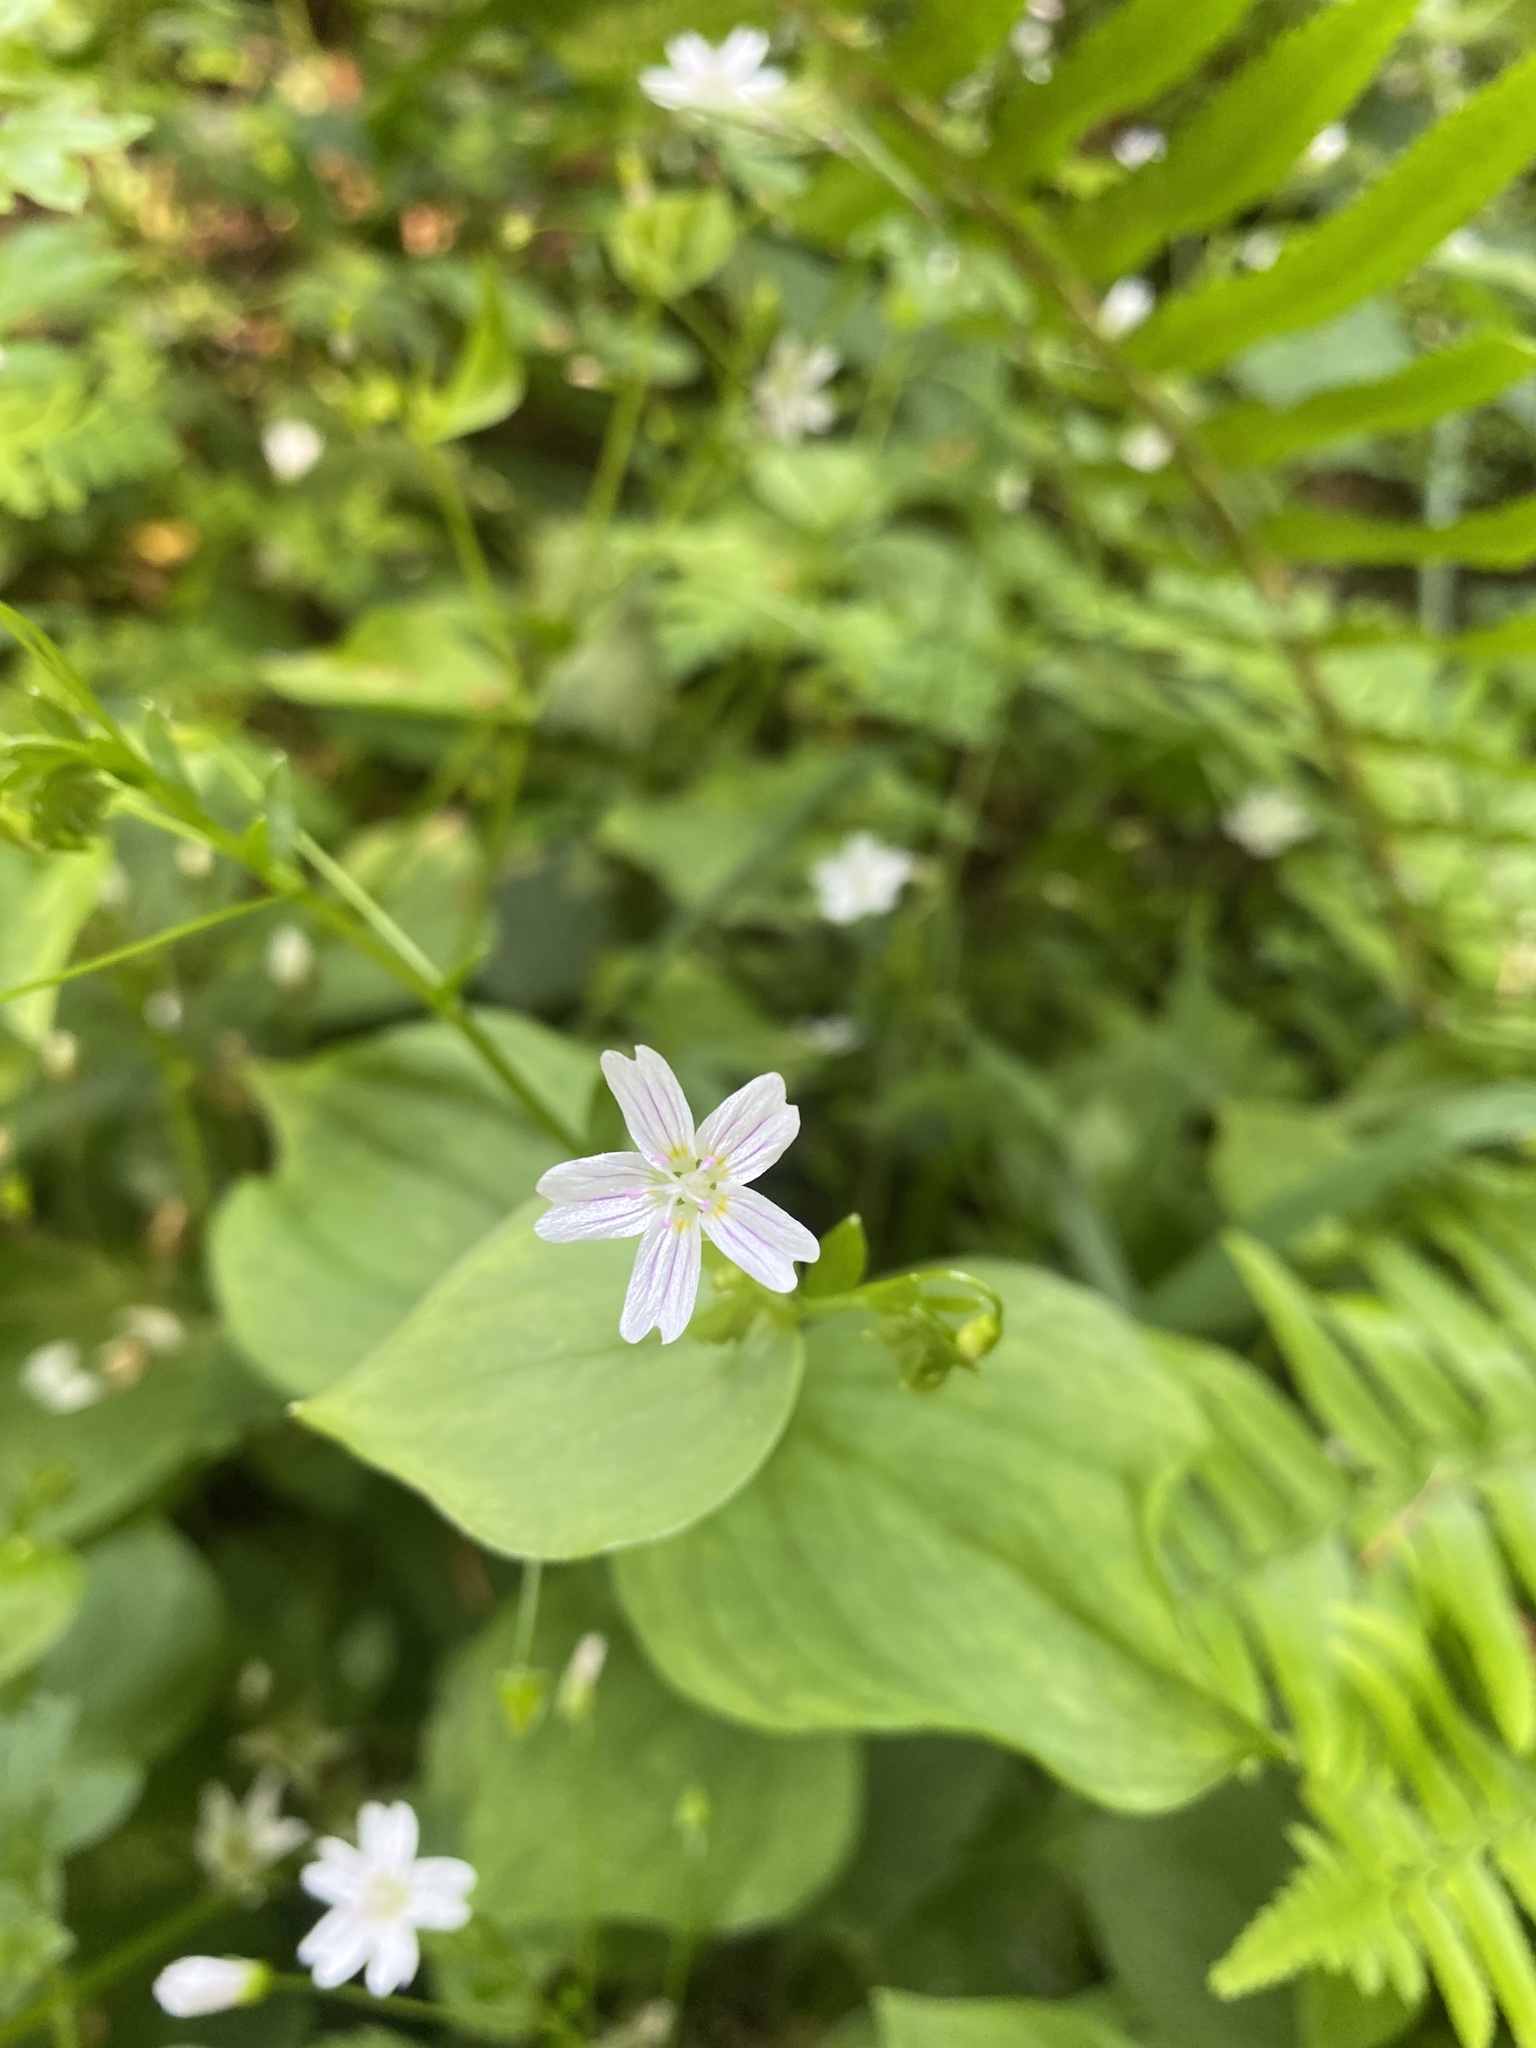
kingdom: Plantae
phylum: Tracheophyta
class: Magnoliopsida
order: Caryophyllales
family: Montiaceae
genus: Claytonia
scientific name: Claytonia sibirica
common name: Pink purslane
